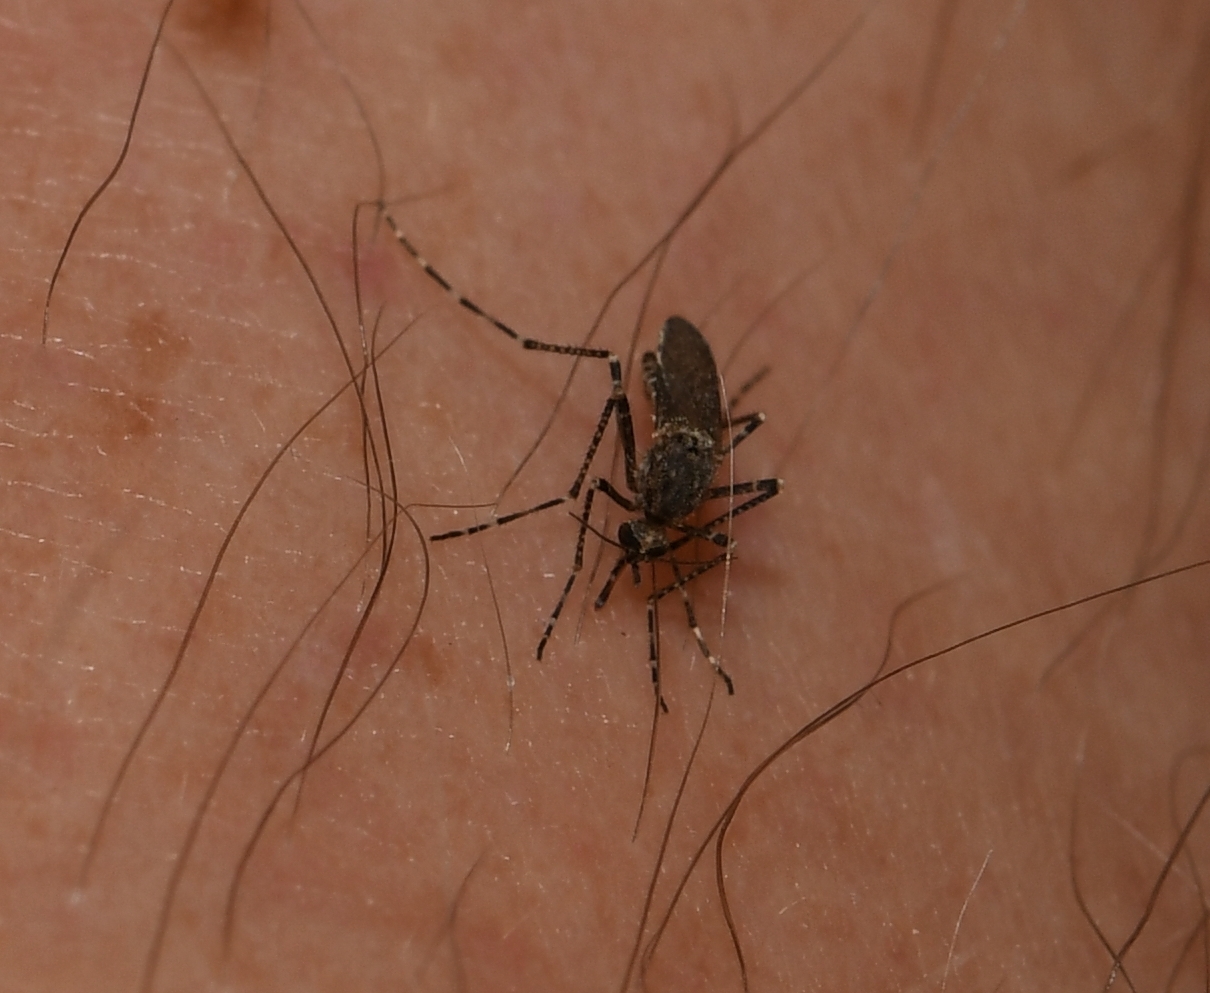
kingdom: Animalia
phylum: Arthropoda
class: Insecta
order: Diptera
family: Culicidae
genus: Psorophora
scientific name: Psorophora columbiae
